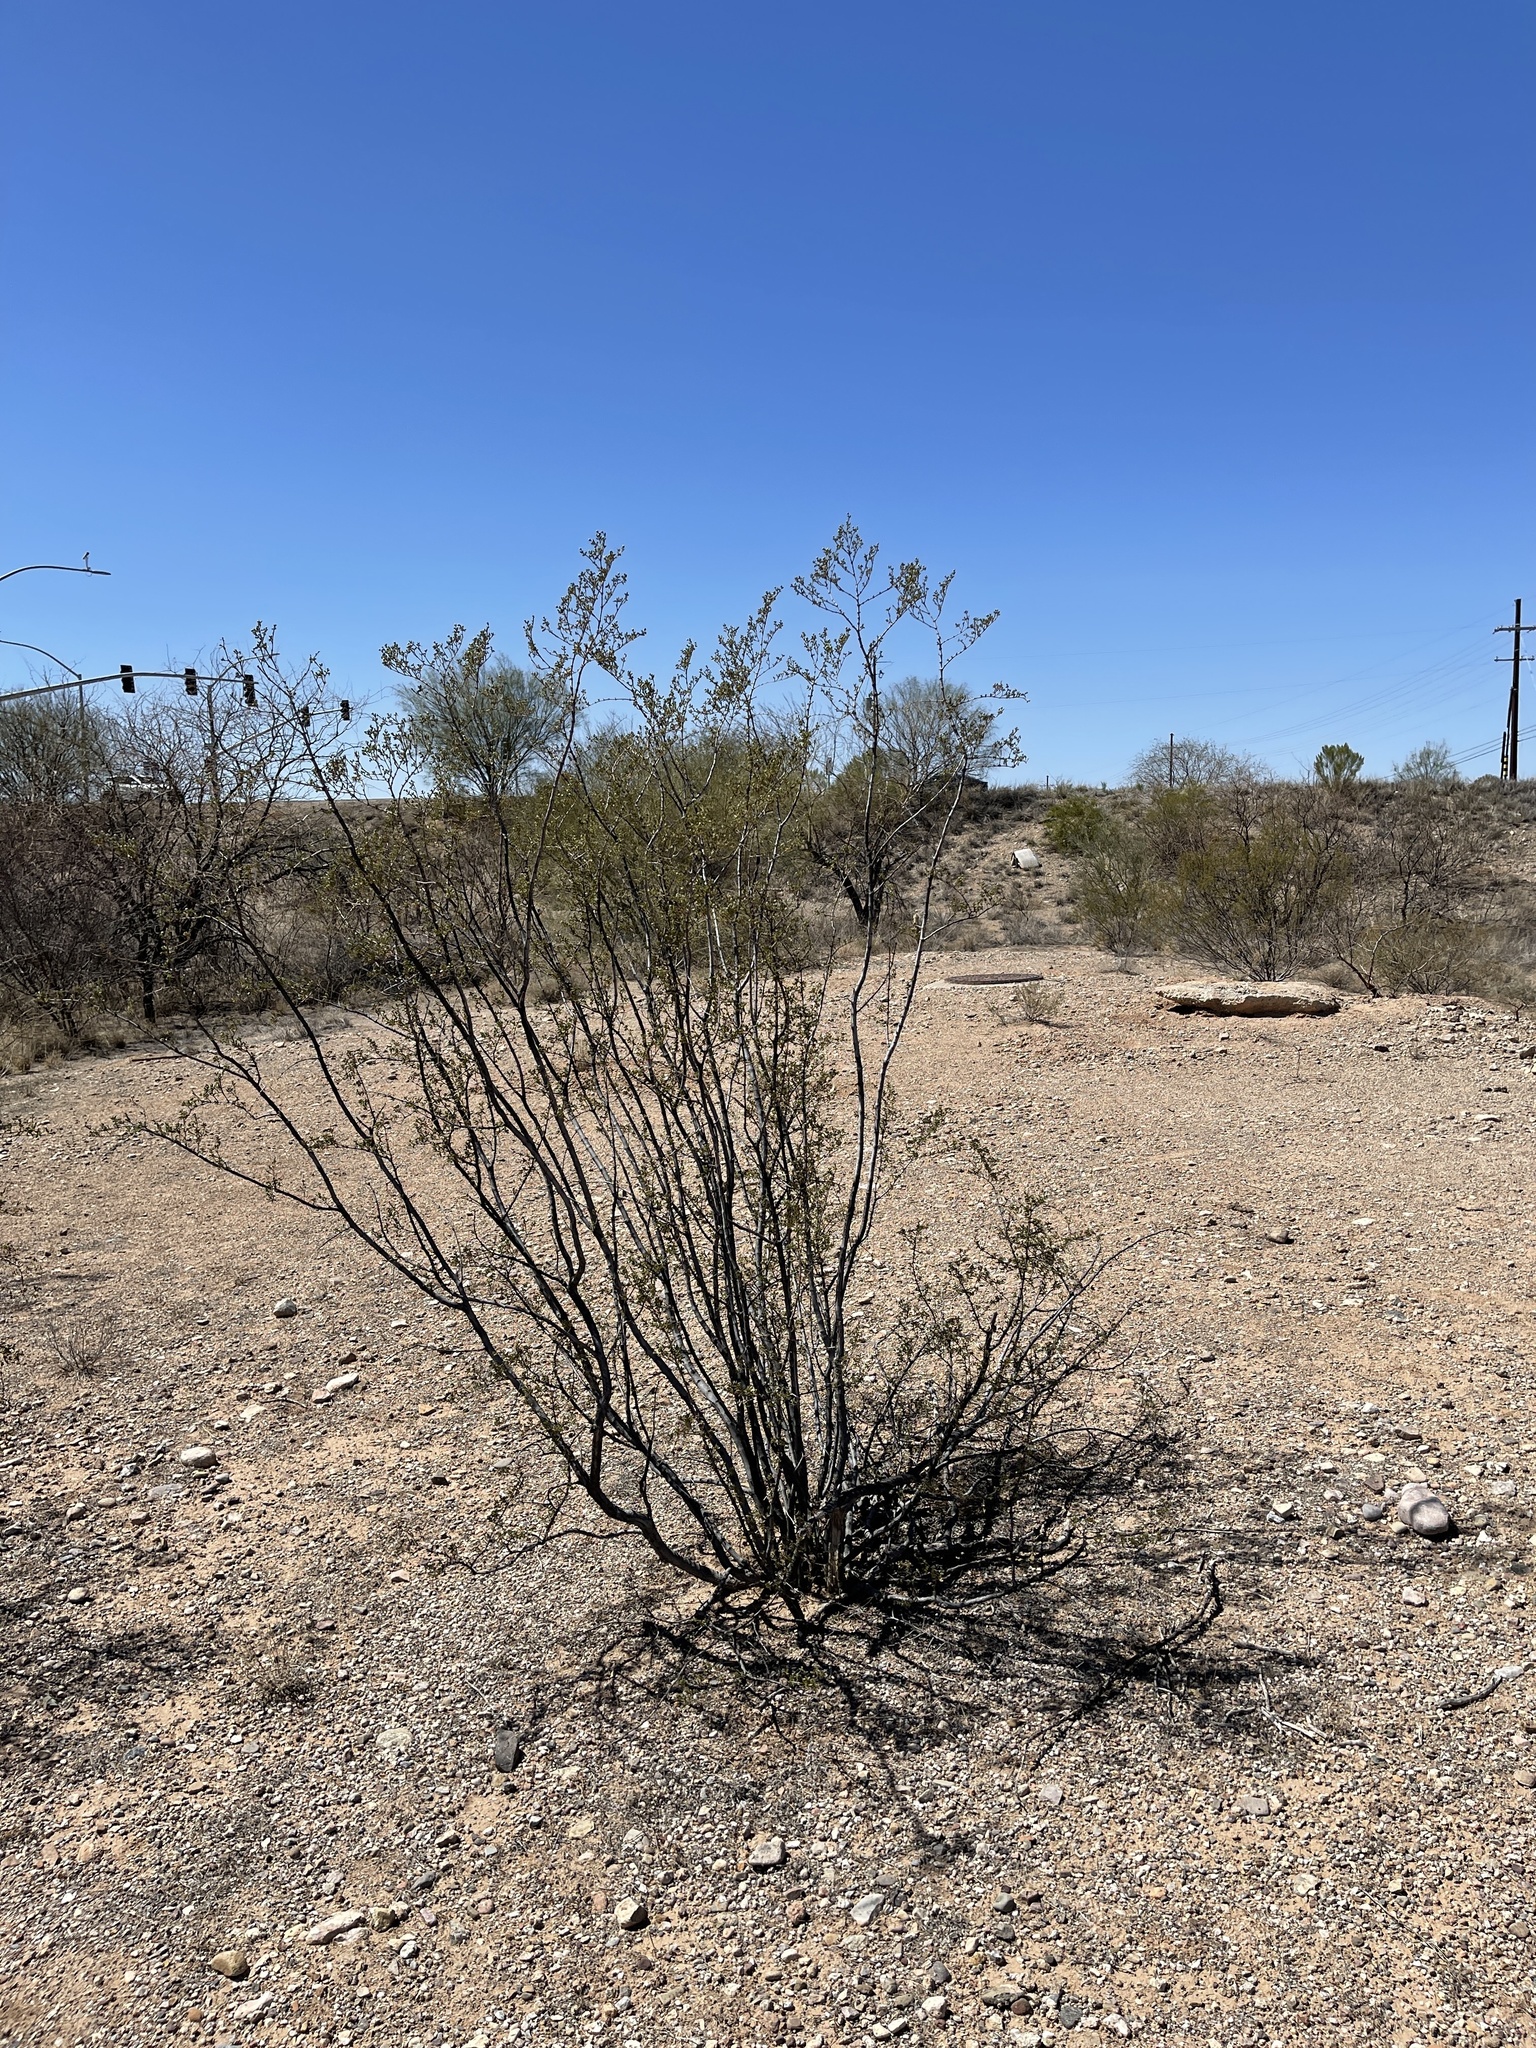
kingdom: Plantae
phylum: Tracheophyta
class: Magnoliopsida
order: Zygophyllales
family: Zygophyllaceae
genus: Larrea
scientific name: Larrea tridentata
